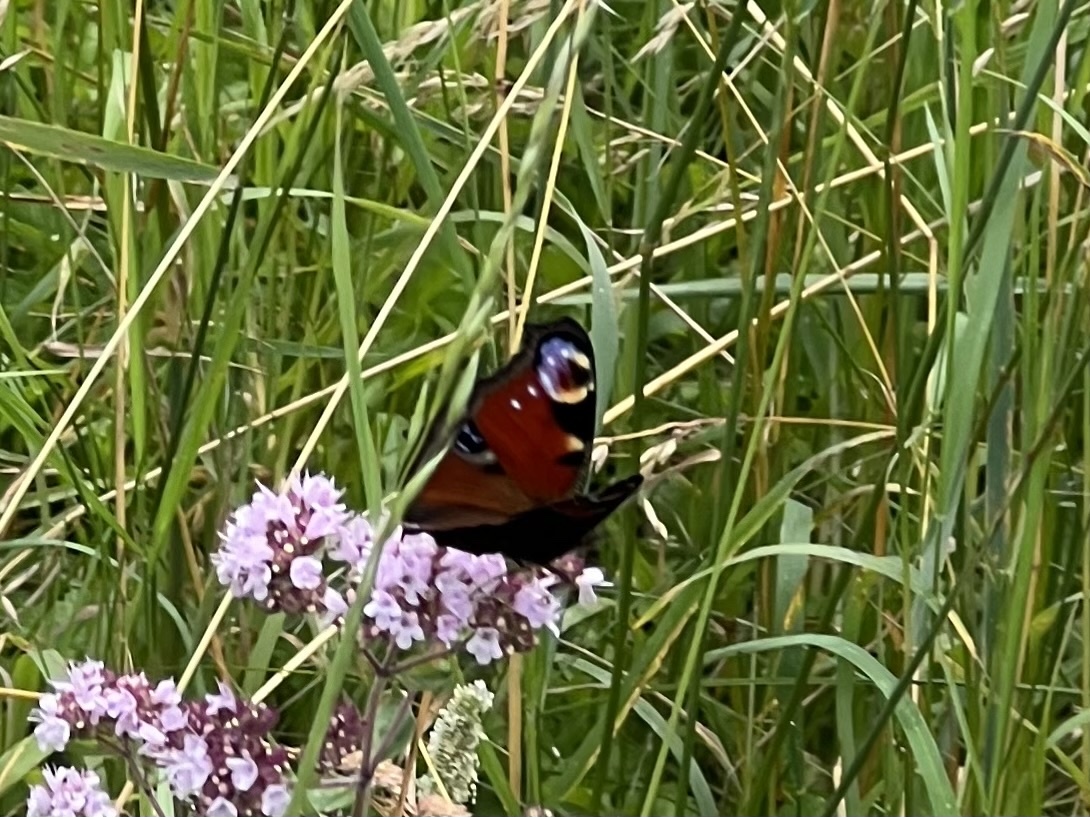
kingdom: Animalia
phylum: Arthropoda
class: Insecta
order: Lepidoptera
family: Nymphalidae
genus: Aglais
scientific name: Aglais io
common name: Peacock
